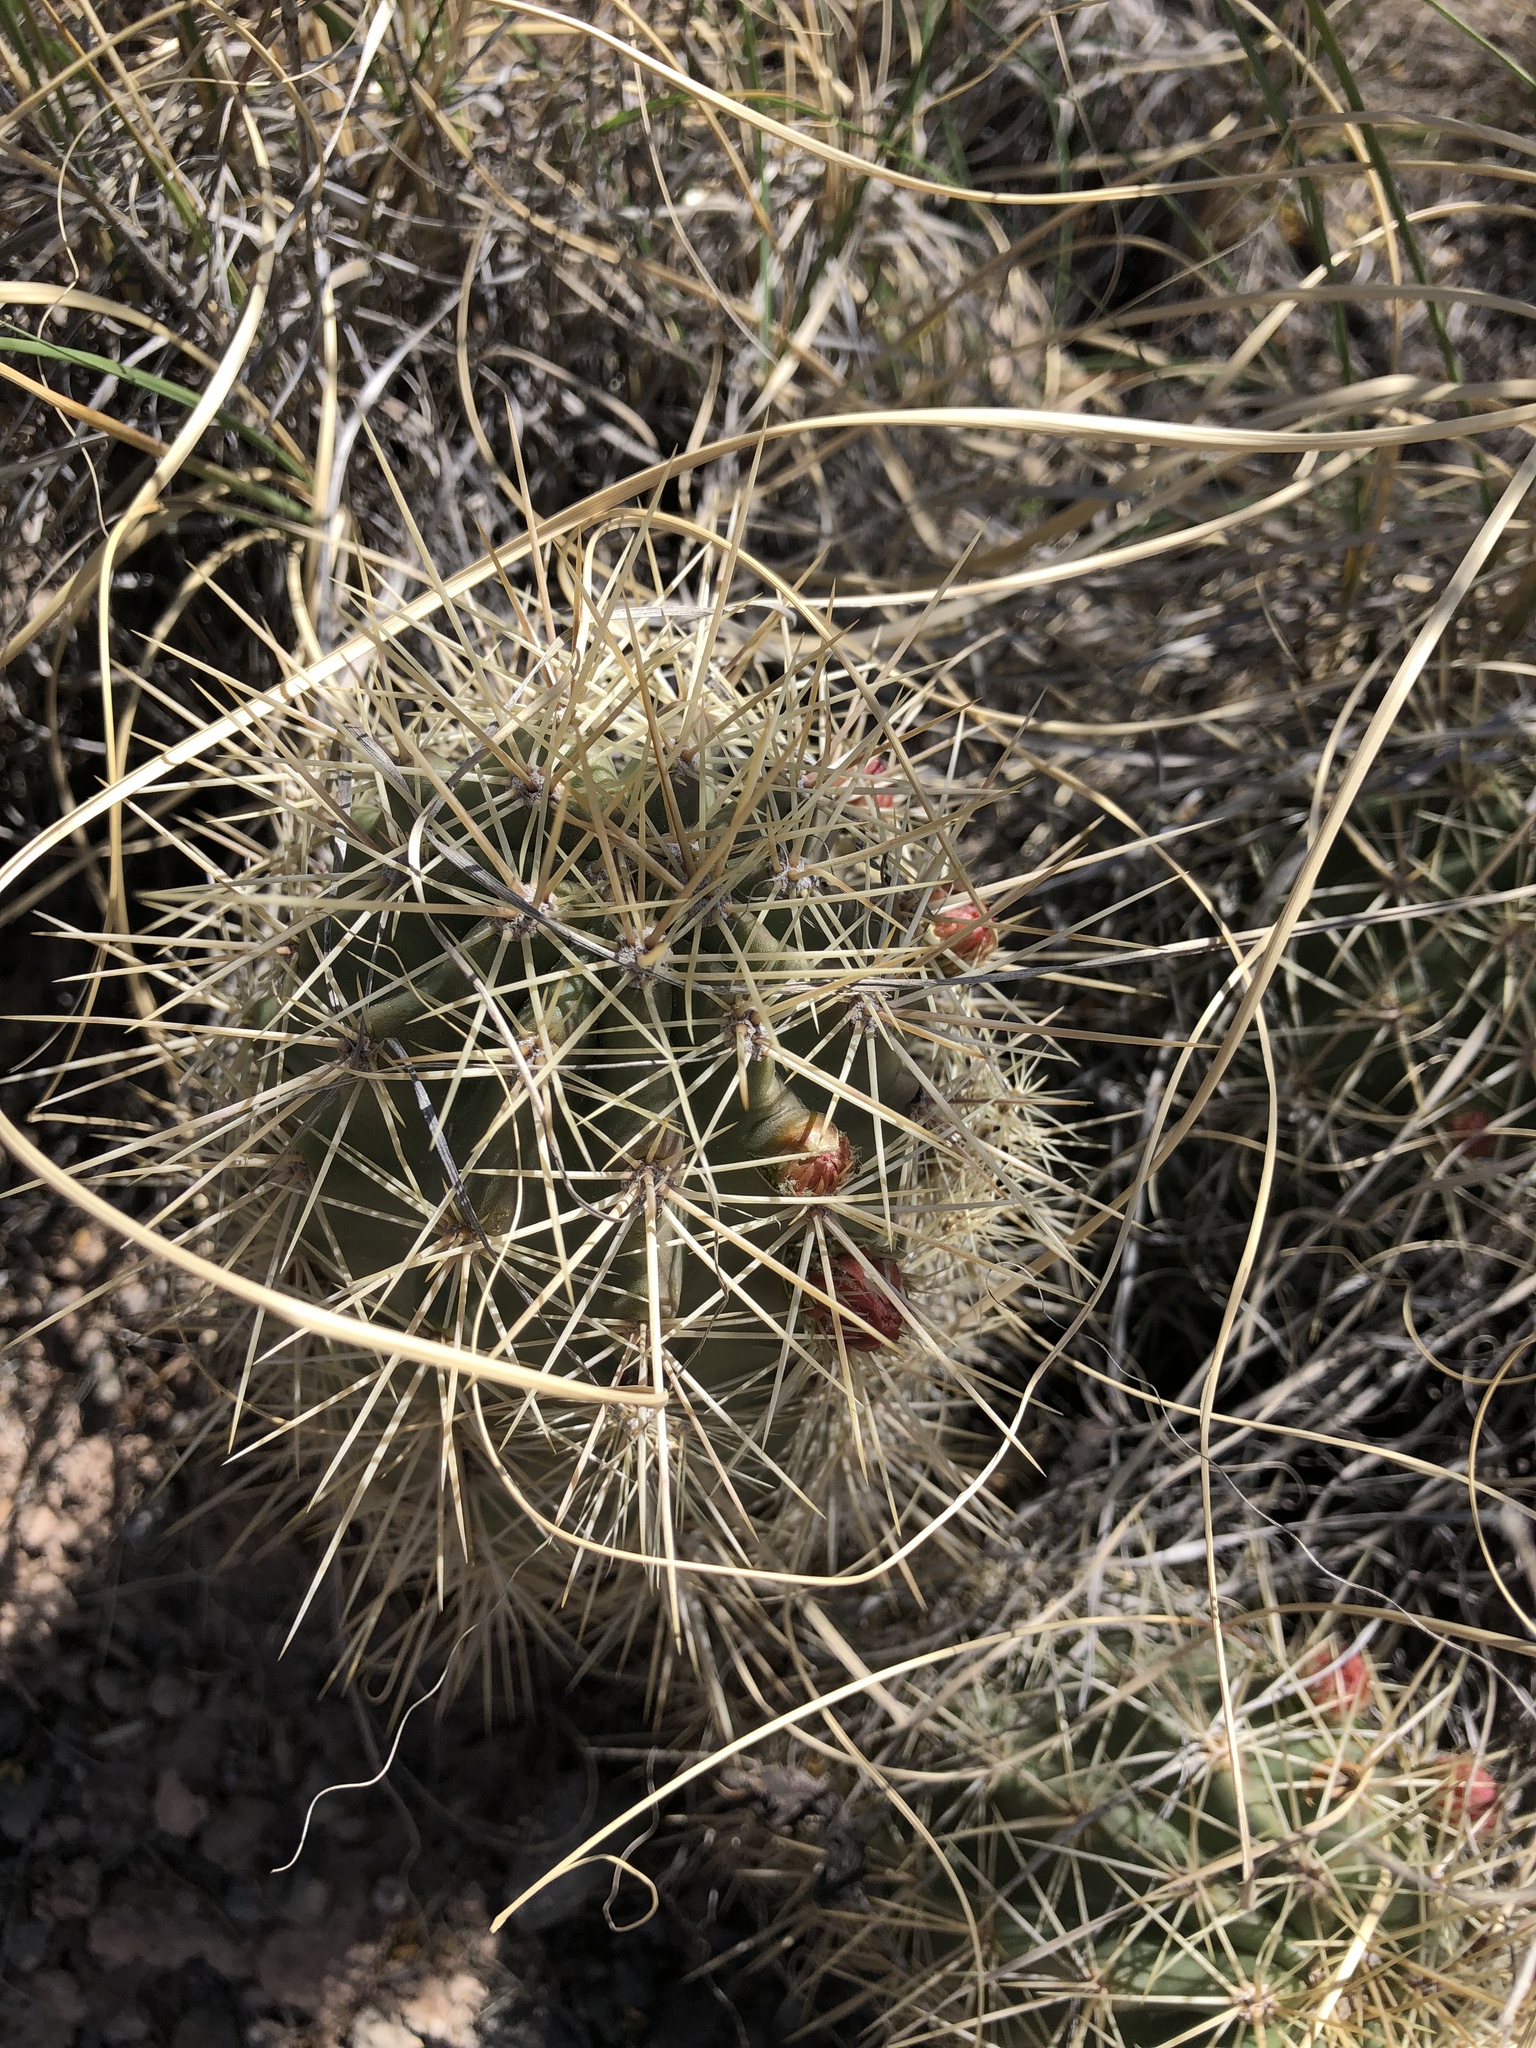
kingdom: Plantae
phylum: Tracheophyta
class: Magnoliopsida
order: Caryophyllales
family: Cactaceae
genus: Echinocereus
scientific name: Echinocereus coccineus
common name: Scarlet hedgehog cactus
